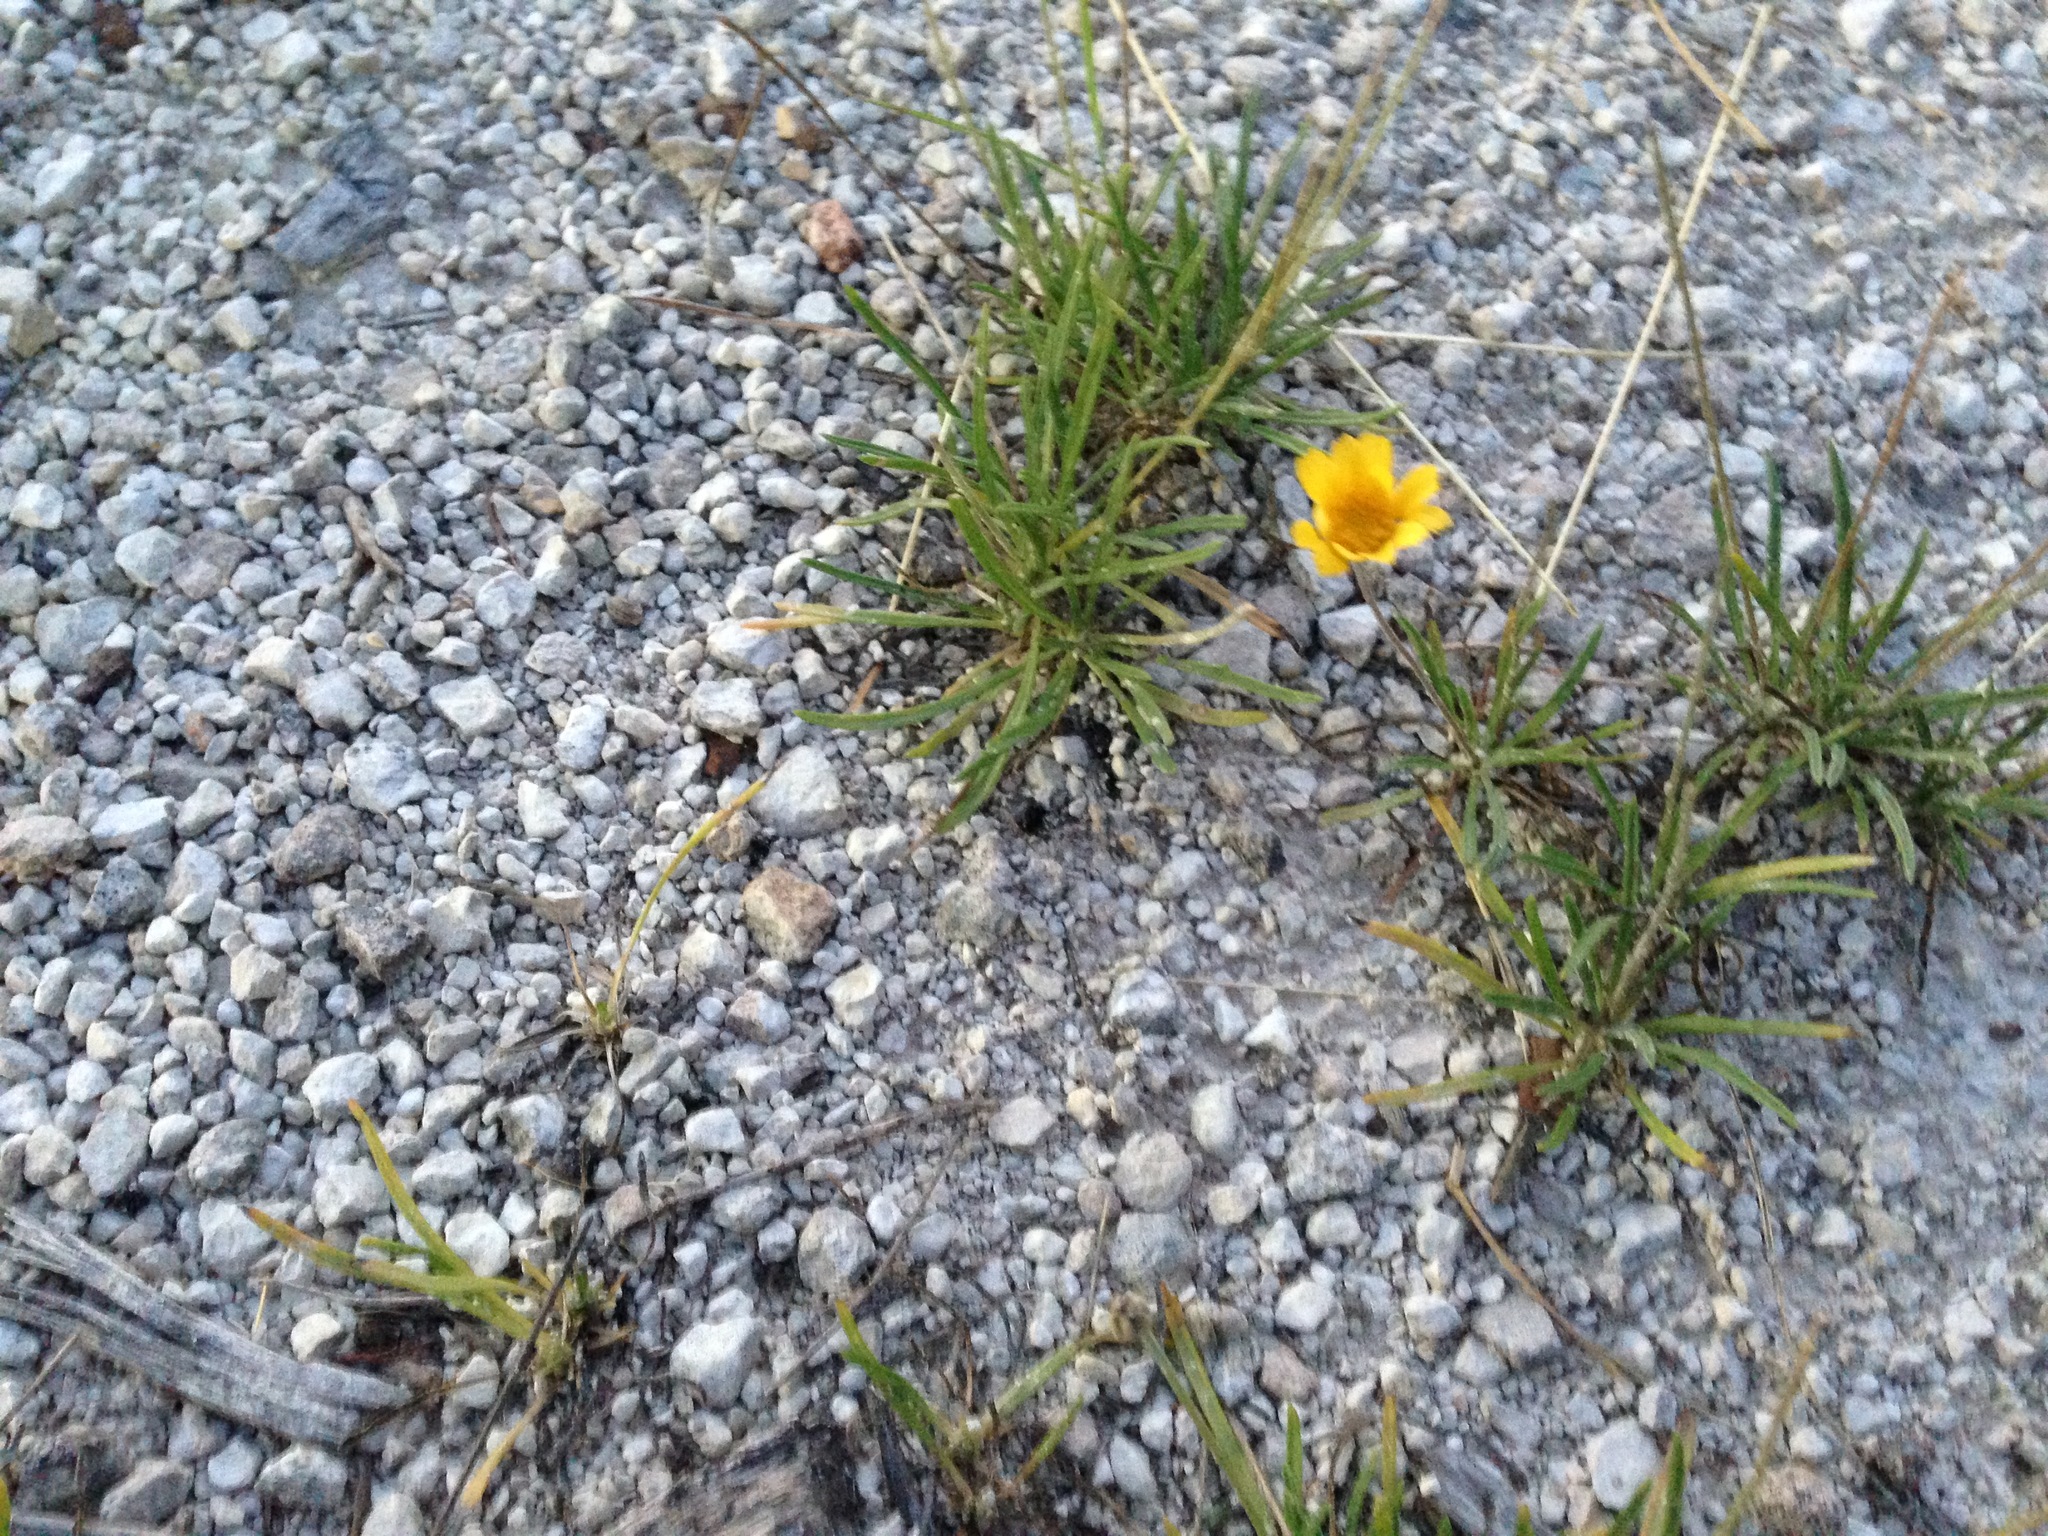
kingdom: Plantae
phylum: Tracheophyta
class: Magnoliopsida
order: Asterales
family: Asteraceae
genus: Tetraneuris
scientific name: Tetraneuris scaposa
